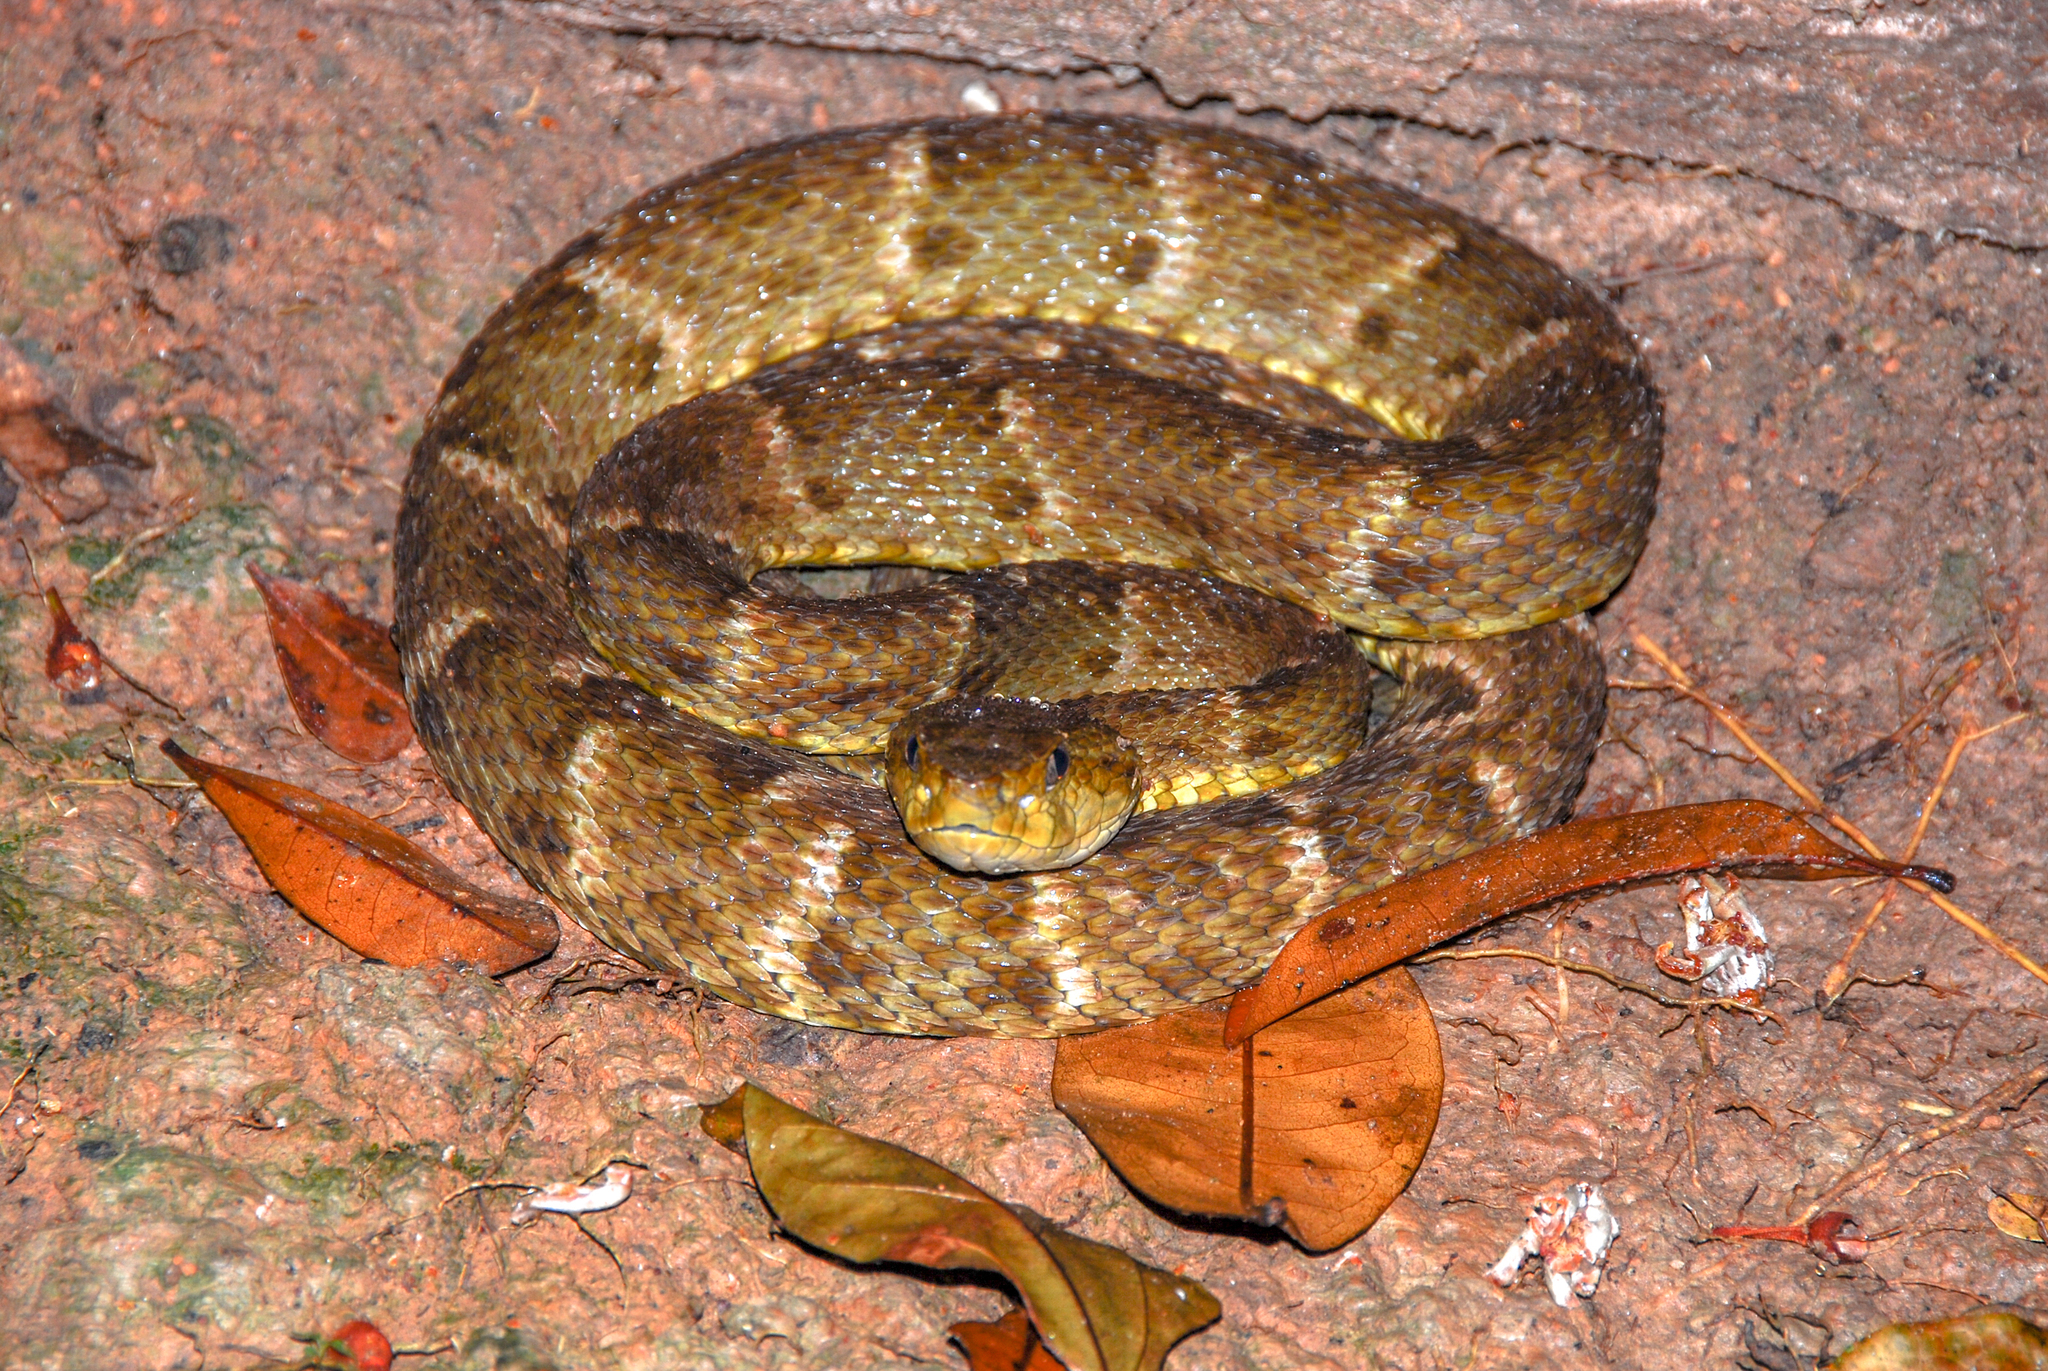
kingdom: Animalia
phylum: Chordata
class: Squamata
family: Viperidae
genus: Bothrops
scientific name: Bothrops atrox
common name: Common lancehead
